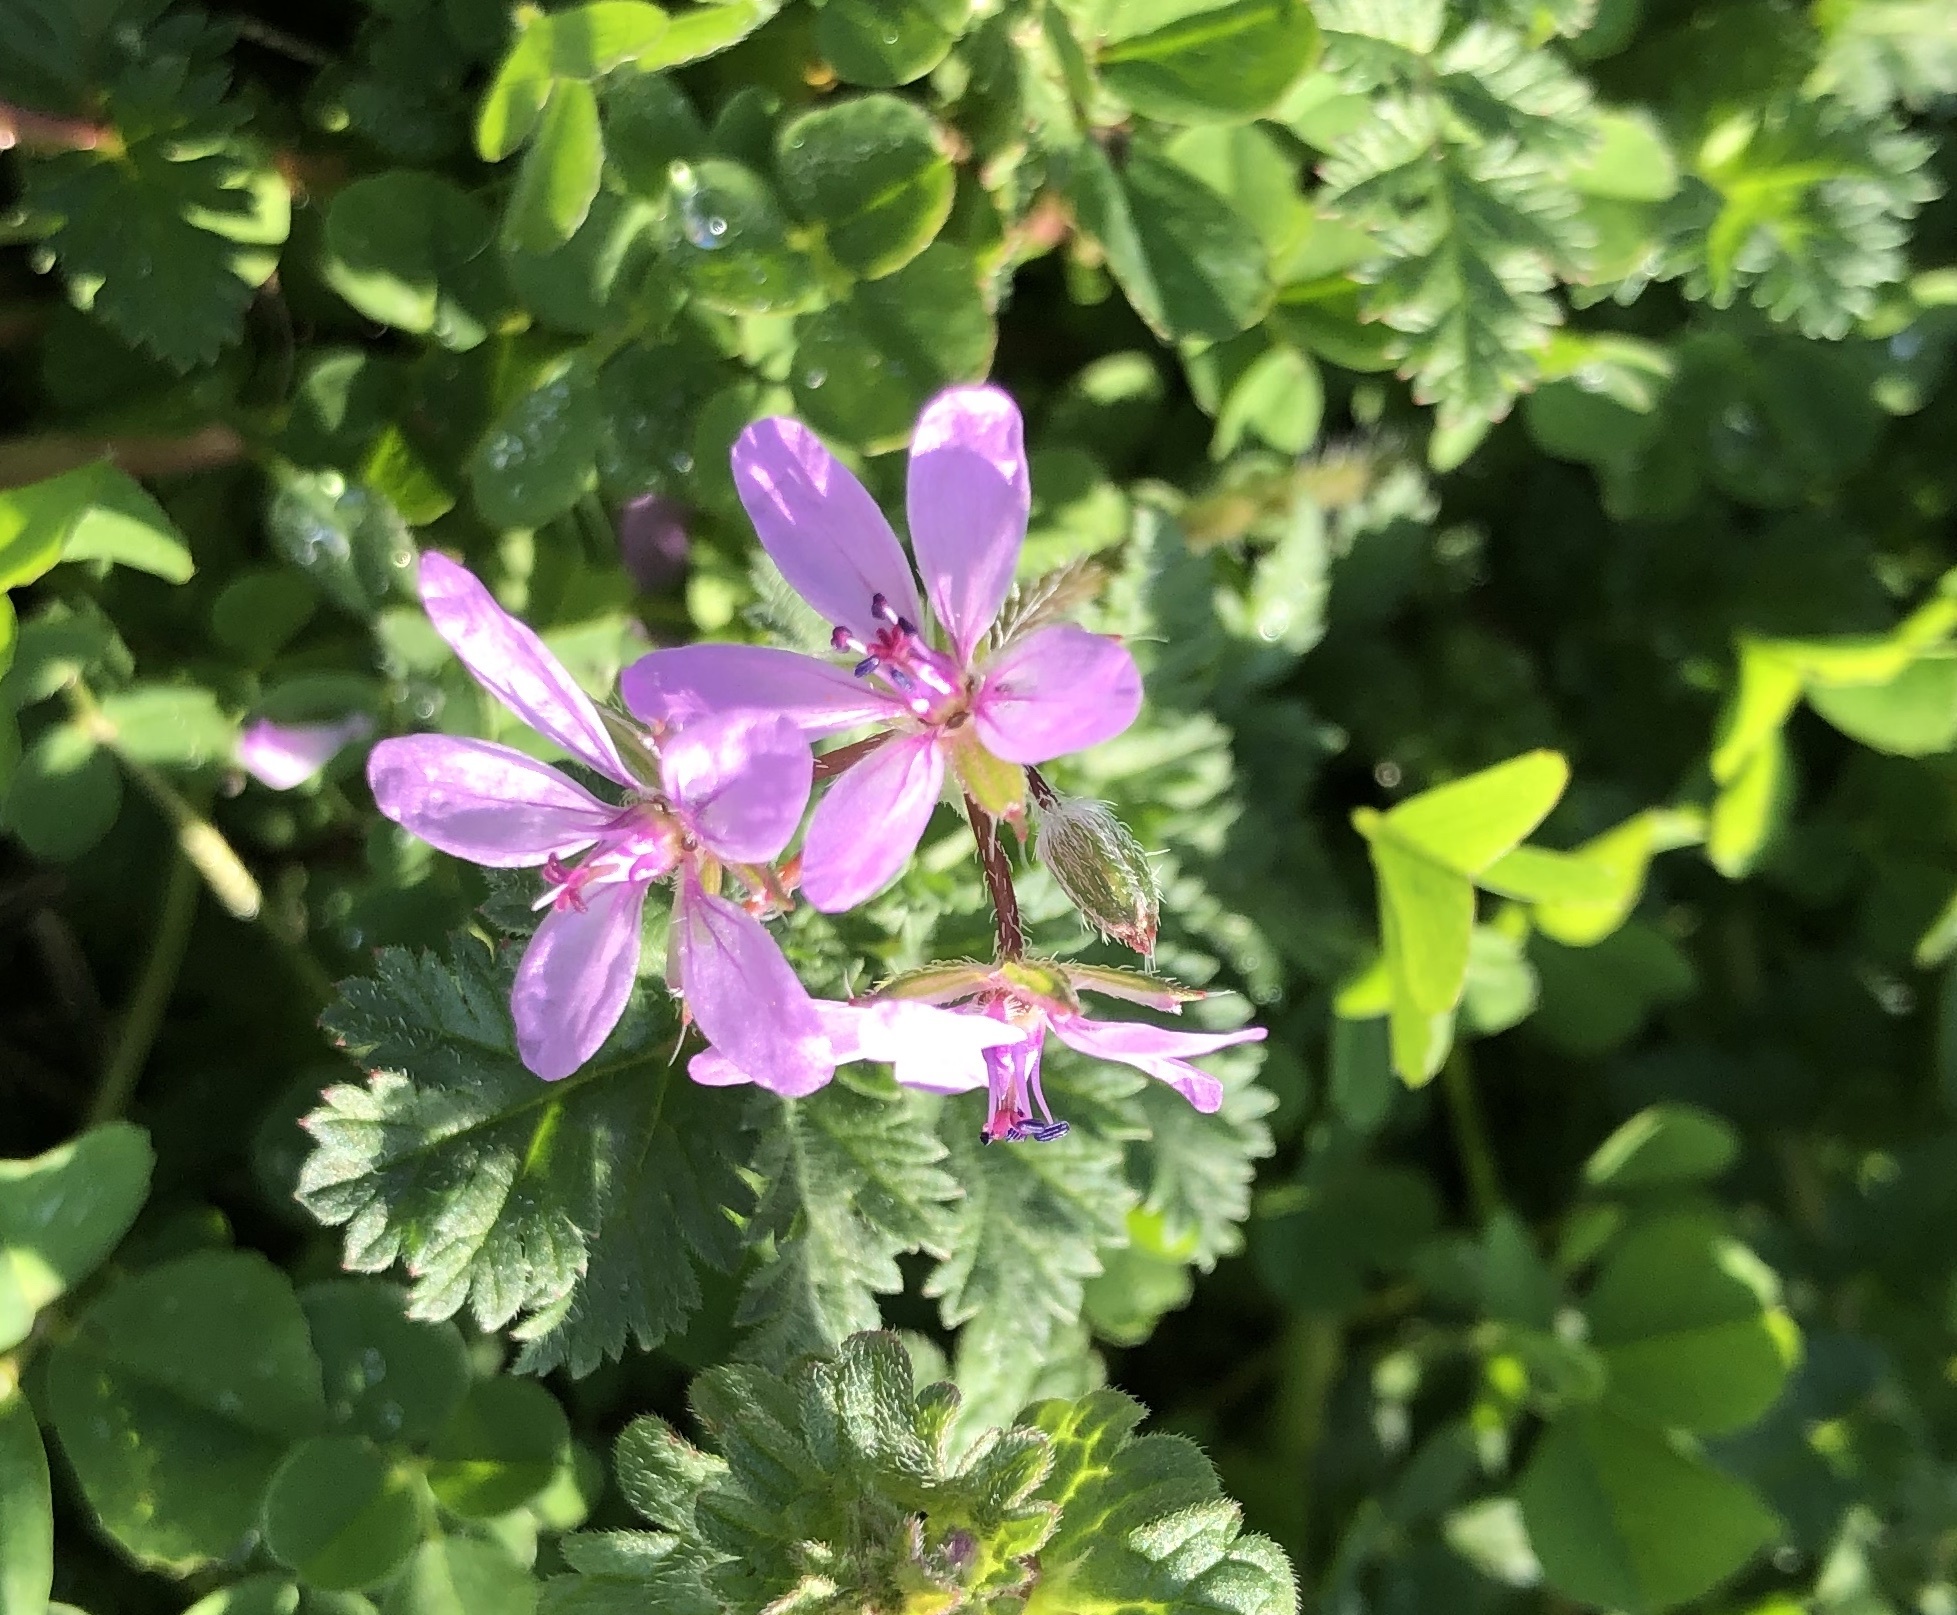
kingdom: Plantae
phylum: Tracheophyta
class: Magnoliopsida
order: Geraniales
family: Geraniaceae
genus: Erodium
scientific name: Erodium cicutarium
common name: Common stork's-bill
